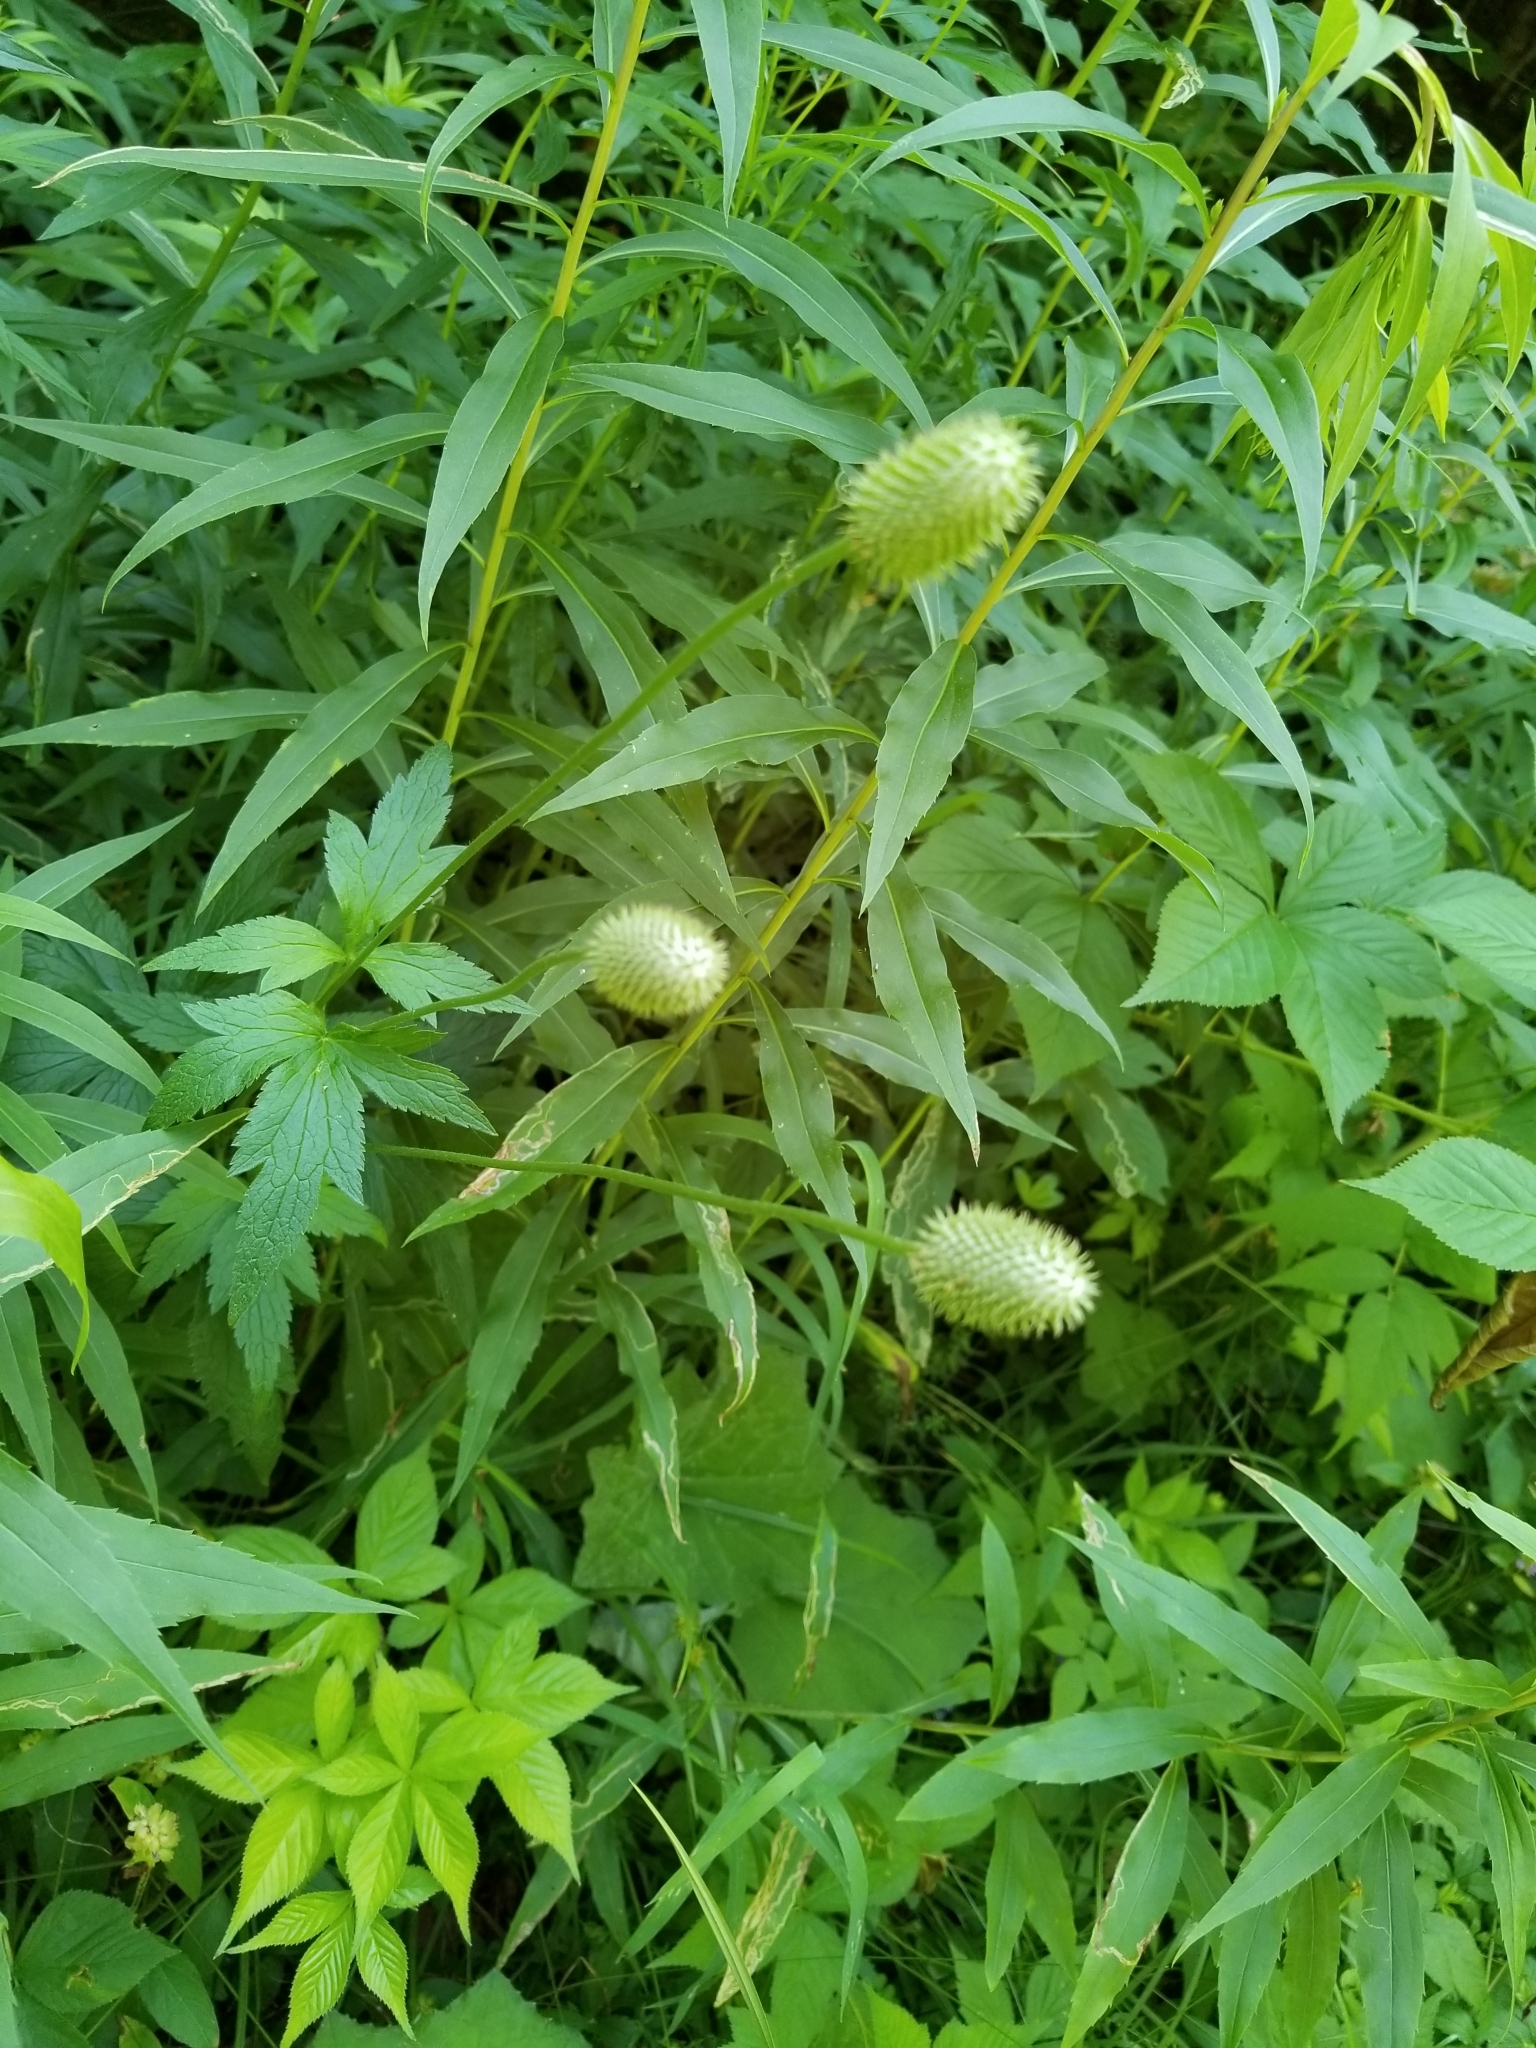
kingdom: Plantae
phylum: Tracheophyta
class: Magnoliopsida
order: Ranunculales
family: Ranunculaceae
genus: Anemone
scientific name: Anemone virginiana
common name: Tall anemone
